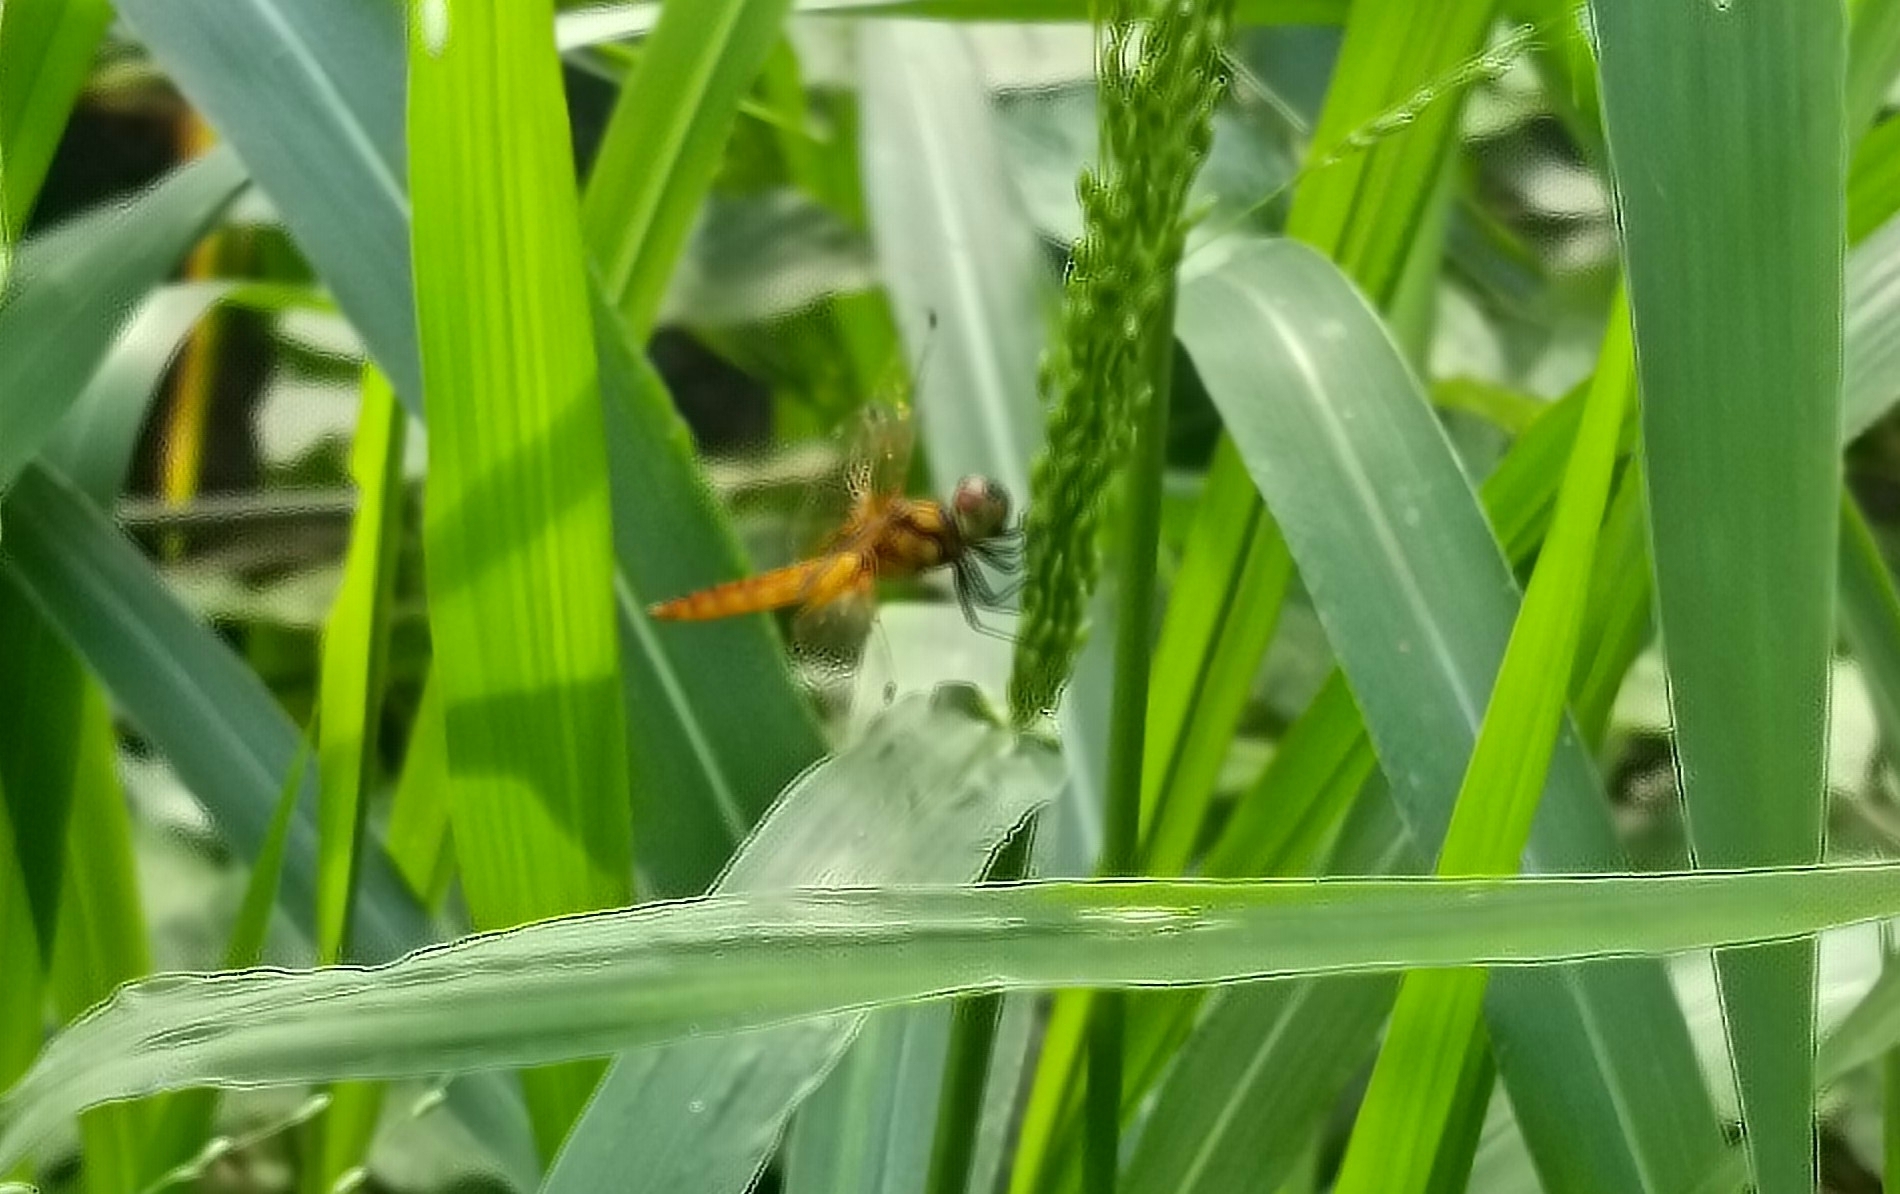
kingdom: Animalia
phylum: Arthropoda
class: Insecta
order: Odonata
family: Libellulidae
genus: Aethriamanta
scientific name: Aethriamanta brevipennis
